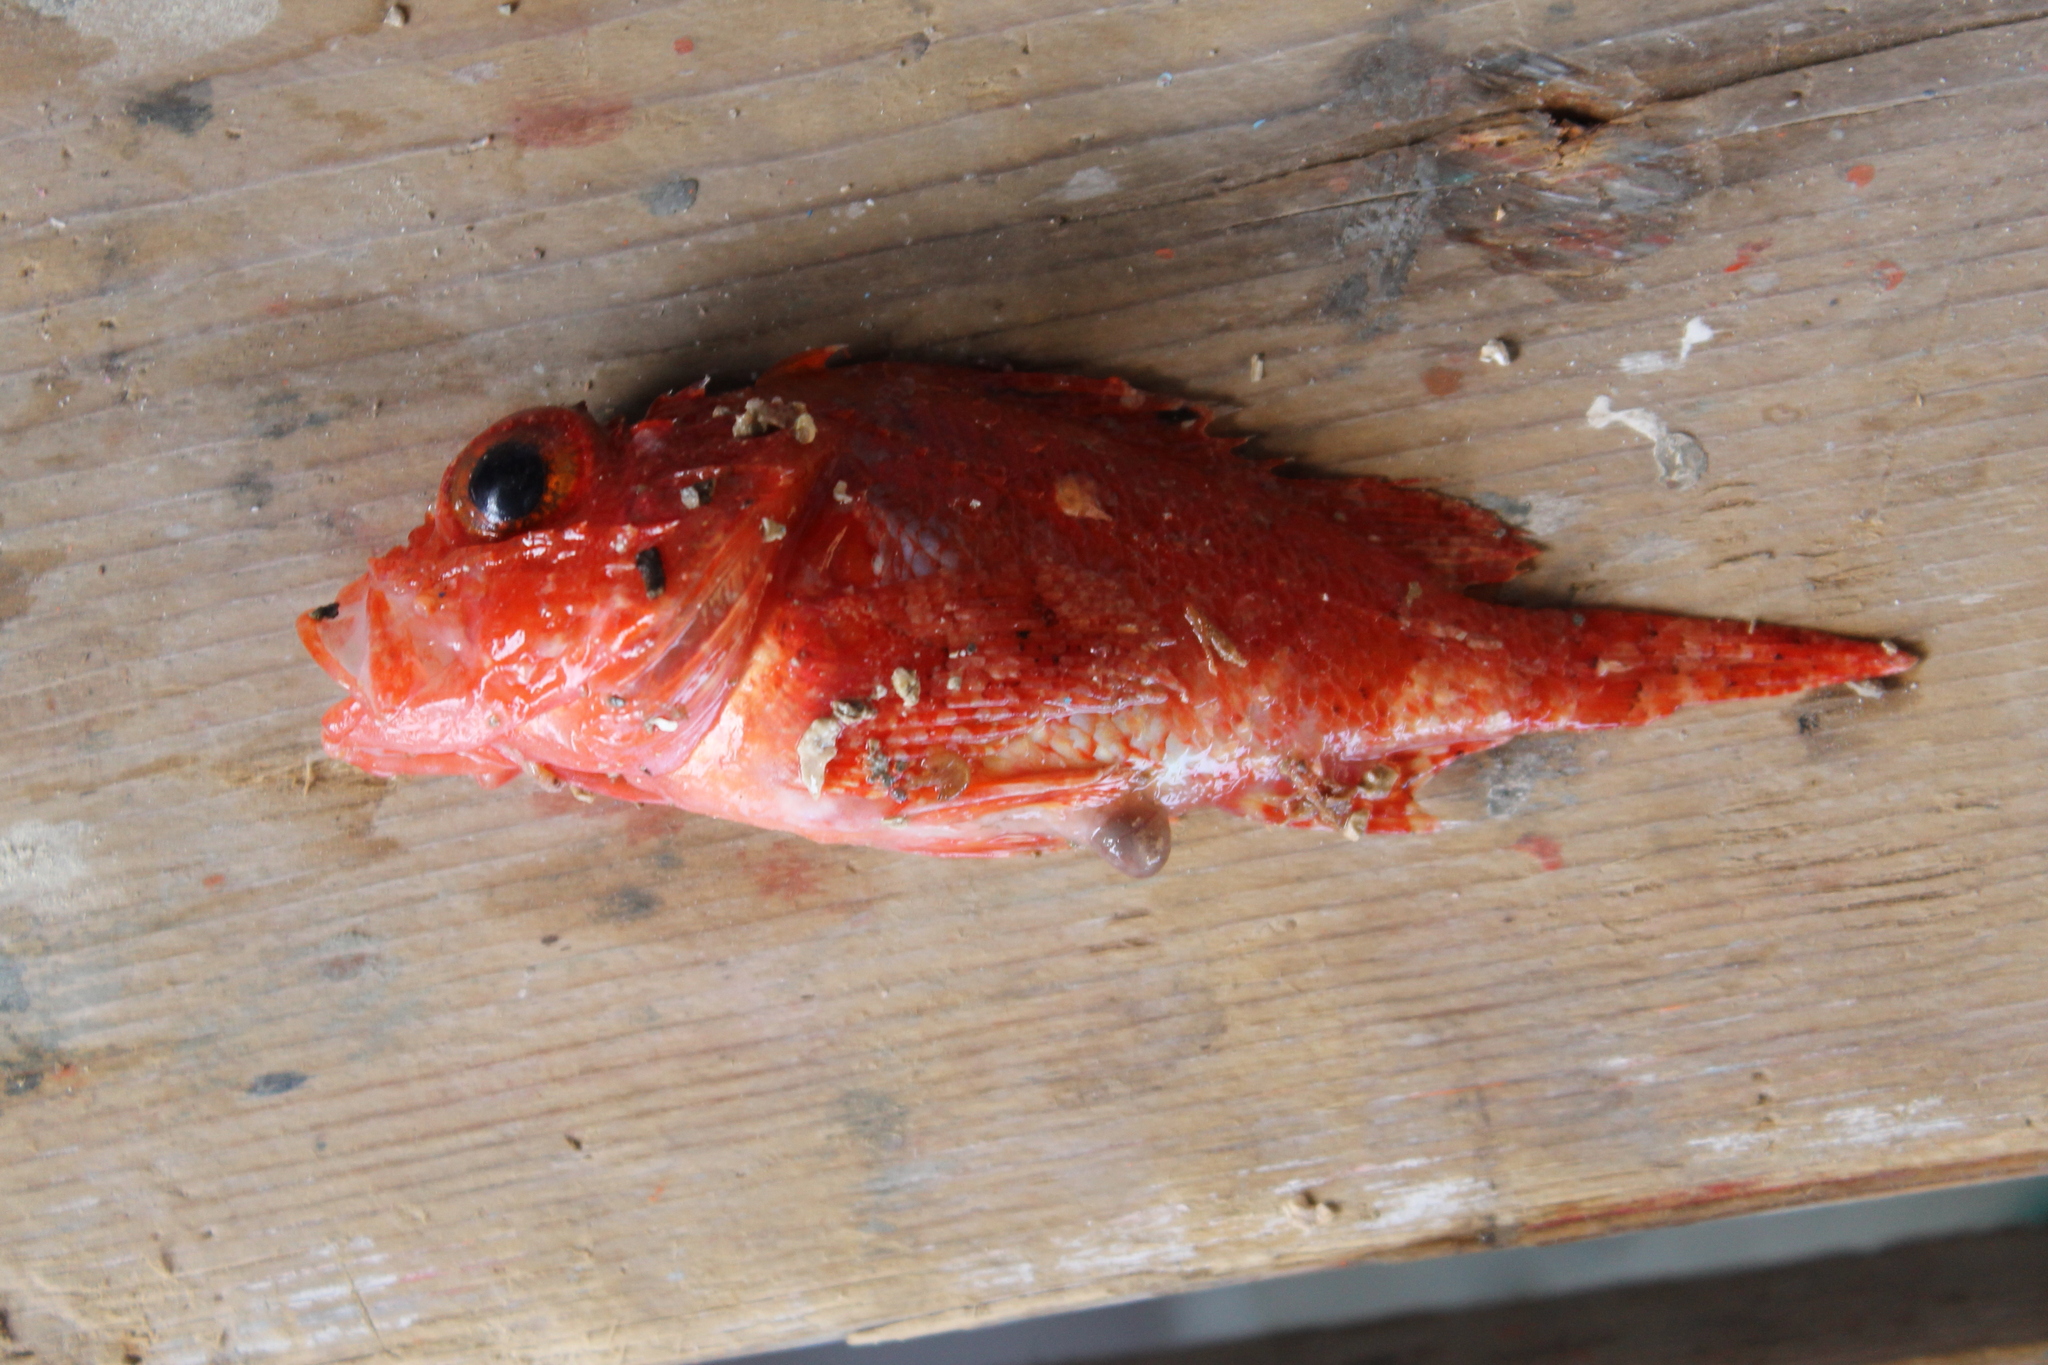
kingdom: Animalia
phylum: Chordata
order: Scorpaeniformes
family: Scorpaenidae
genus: Scorpaena
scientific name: Scorpaena
